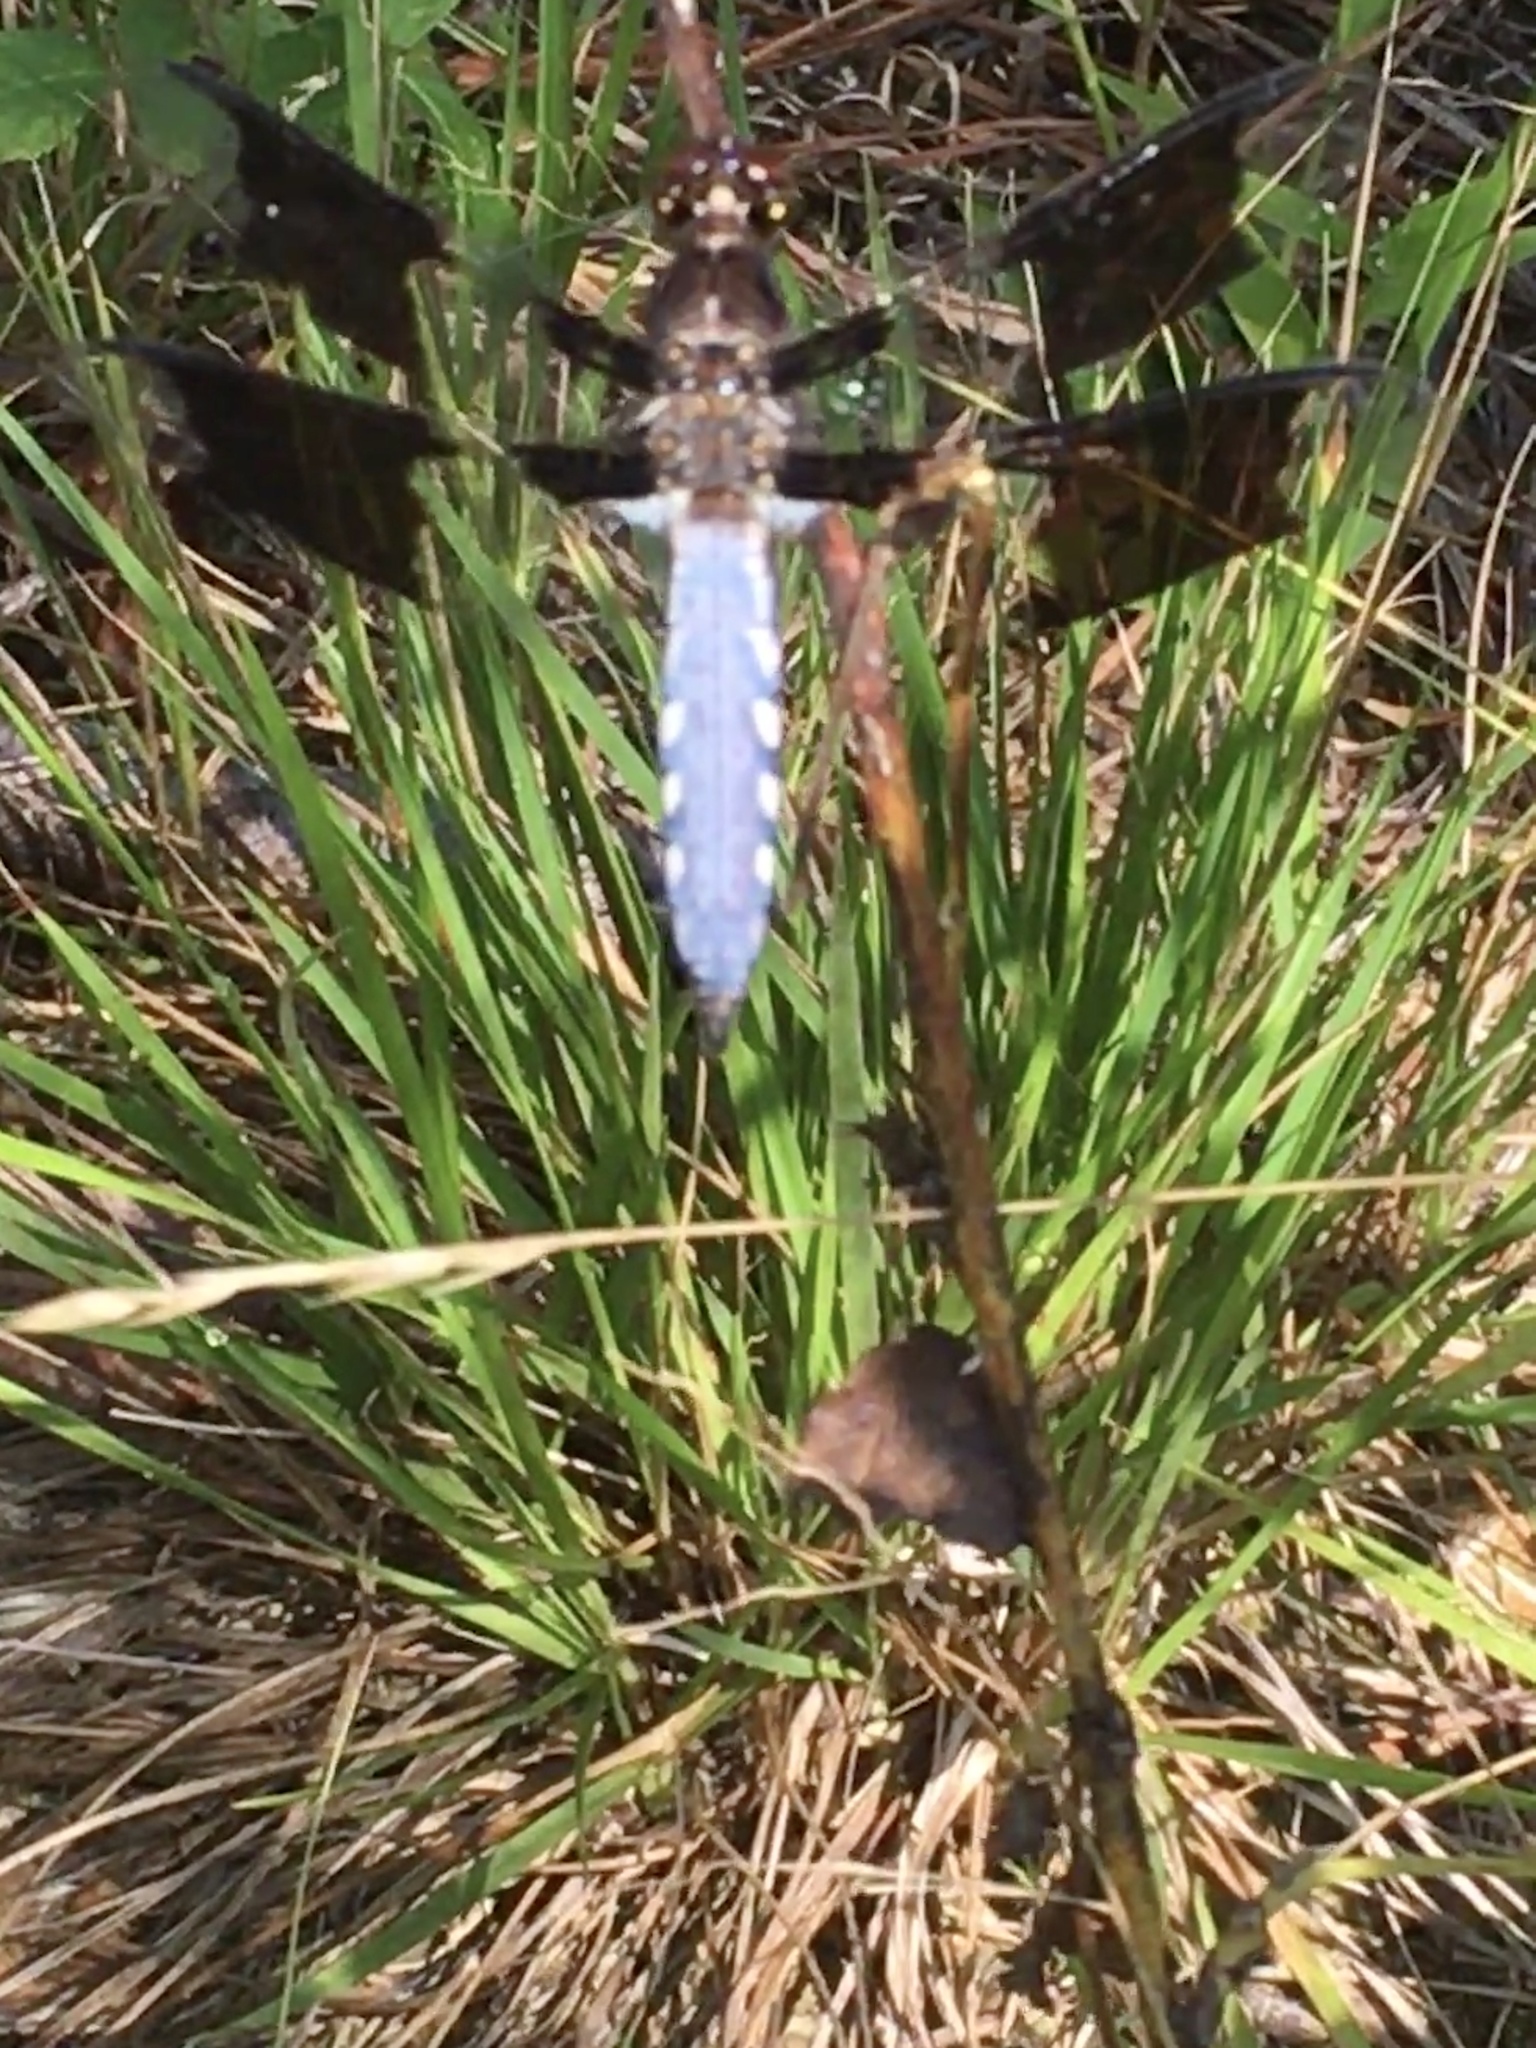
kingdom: Animalia
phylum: Arthropoda
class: Insecta
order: Odonata
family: Libellulidae
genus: Plathemis
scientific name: Plathemis lydia
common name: Common whitetail
